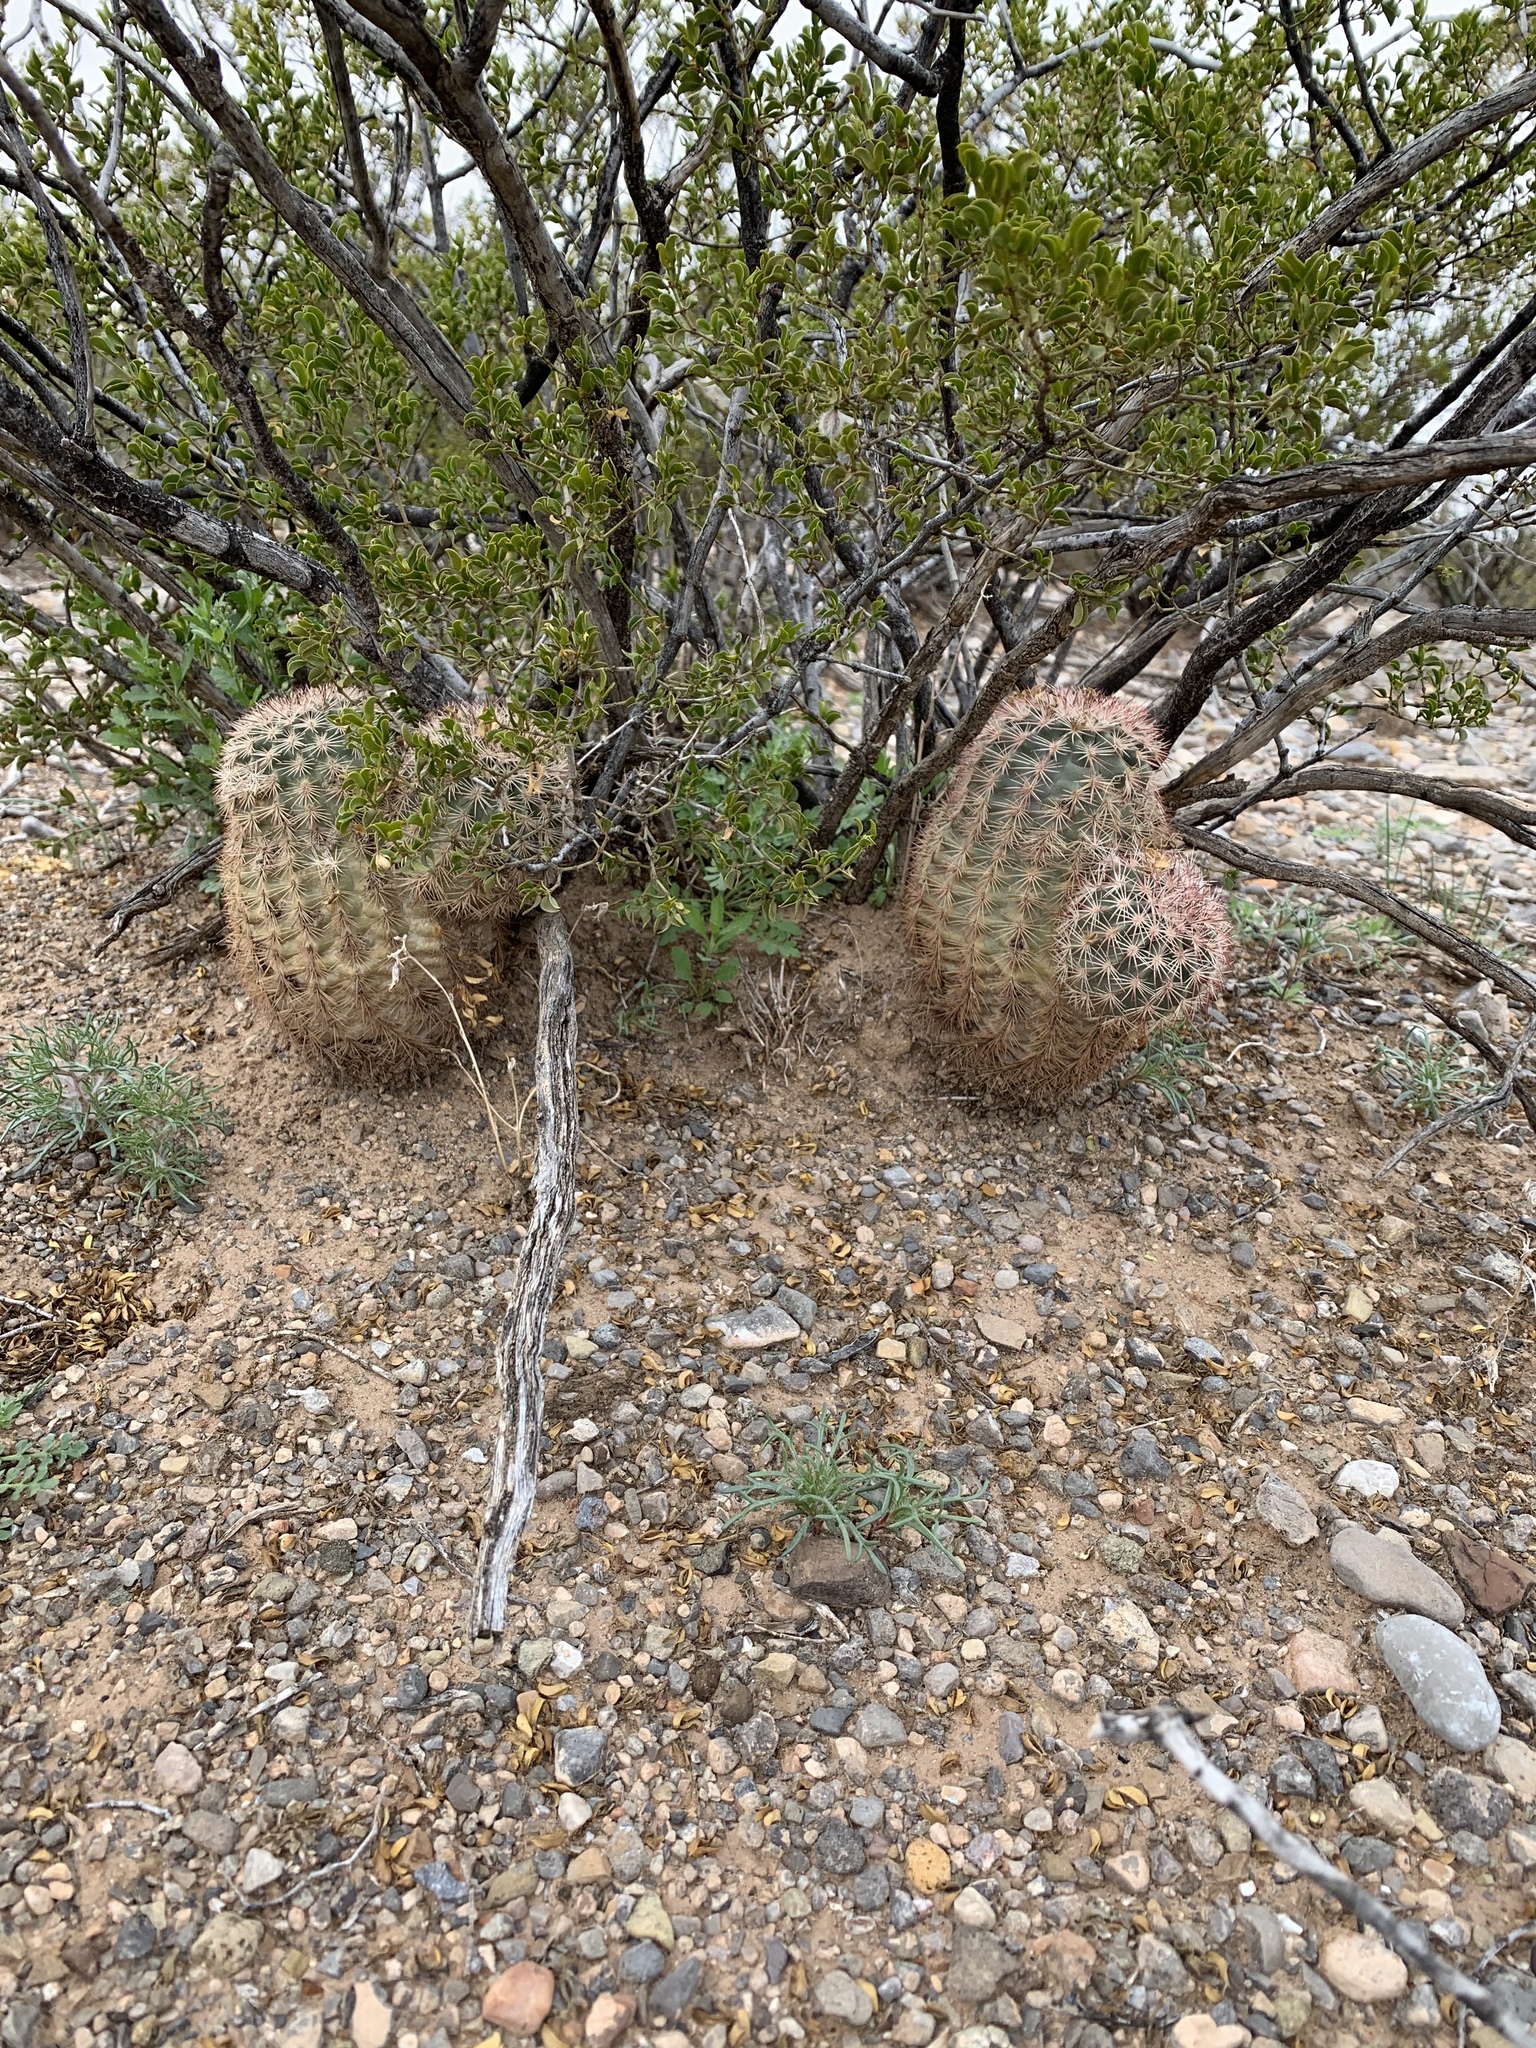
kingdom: Plantae
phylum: Tracheophyta
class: Magnoliopsida
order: Caryophyllales
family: Cactaceae
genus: Echinocereus
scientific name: Echinocereus dasyacanthus
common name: Spiny hedgehog cactus
